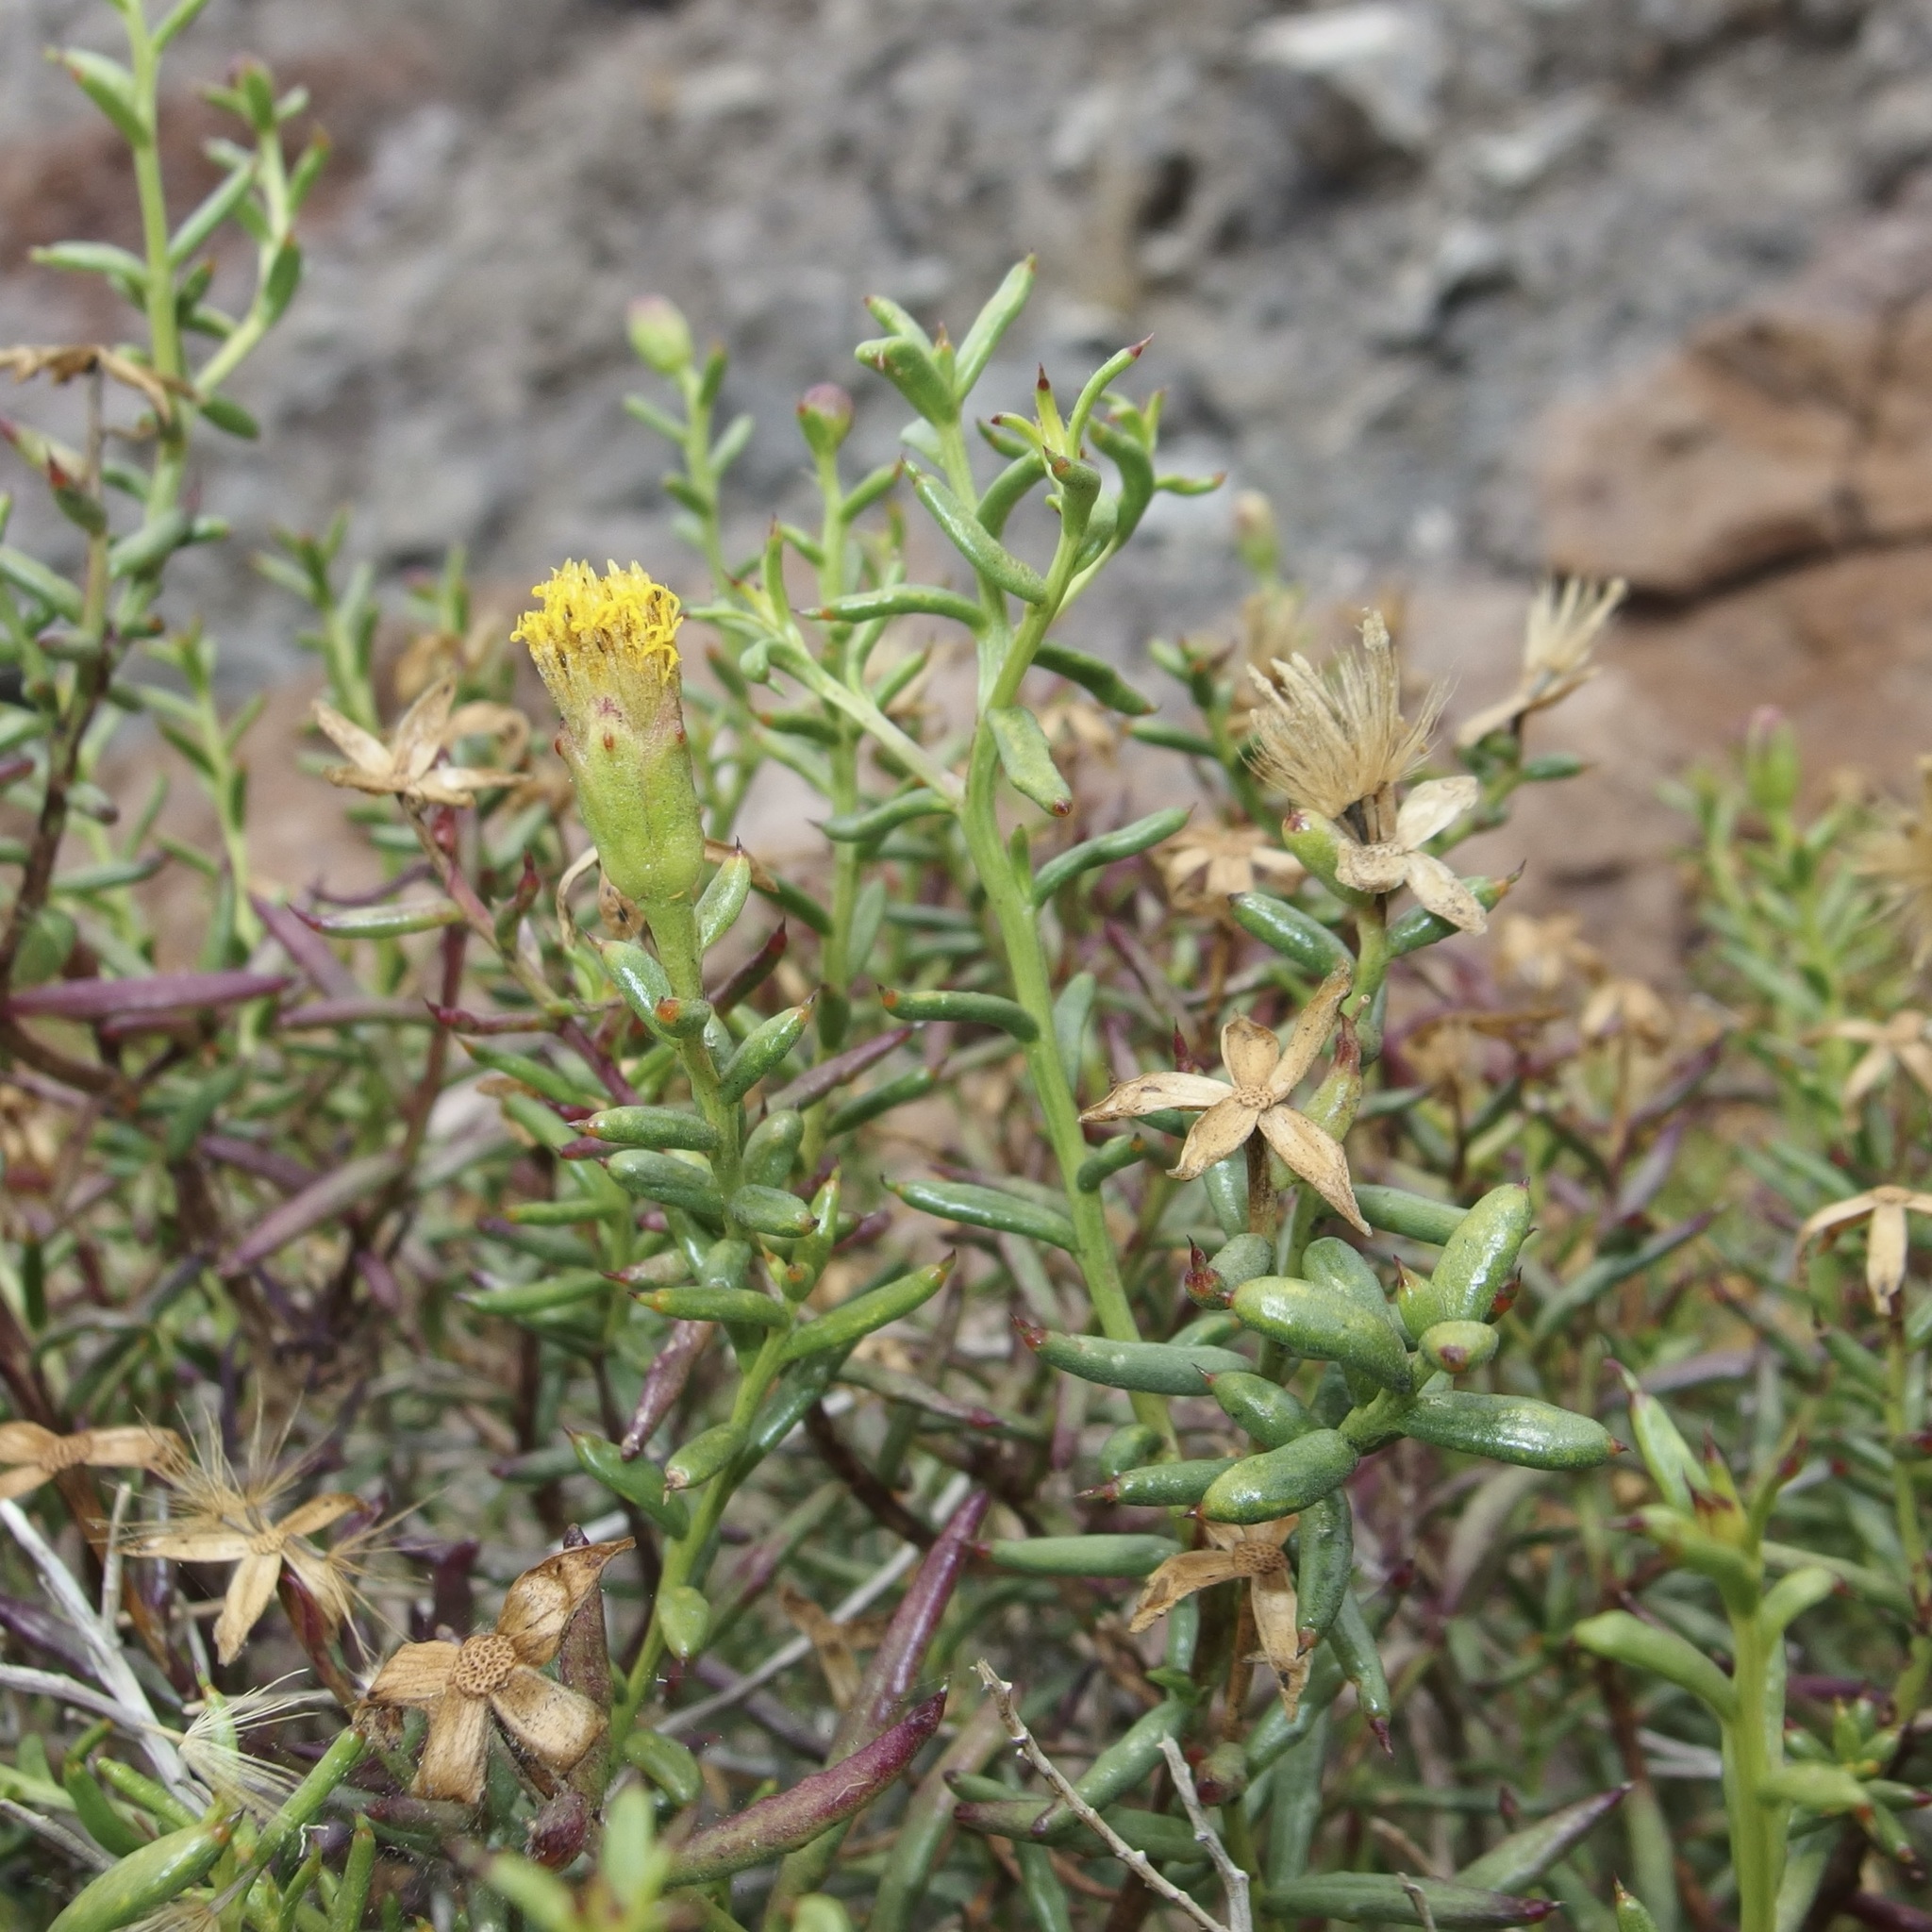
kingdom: Plantae
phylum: Tracheophyta
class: Magnoliopsida
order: Asterales
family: Asteraceae
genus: Bajacalia
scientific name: Bajacalia crassifolia
